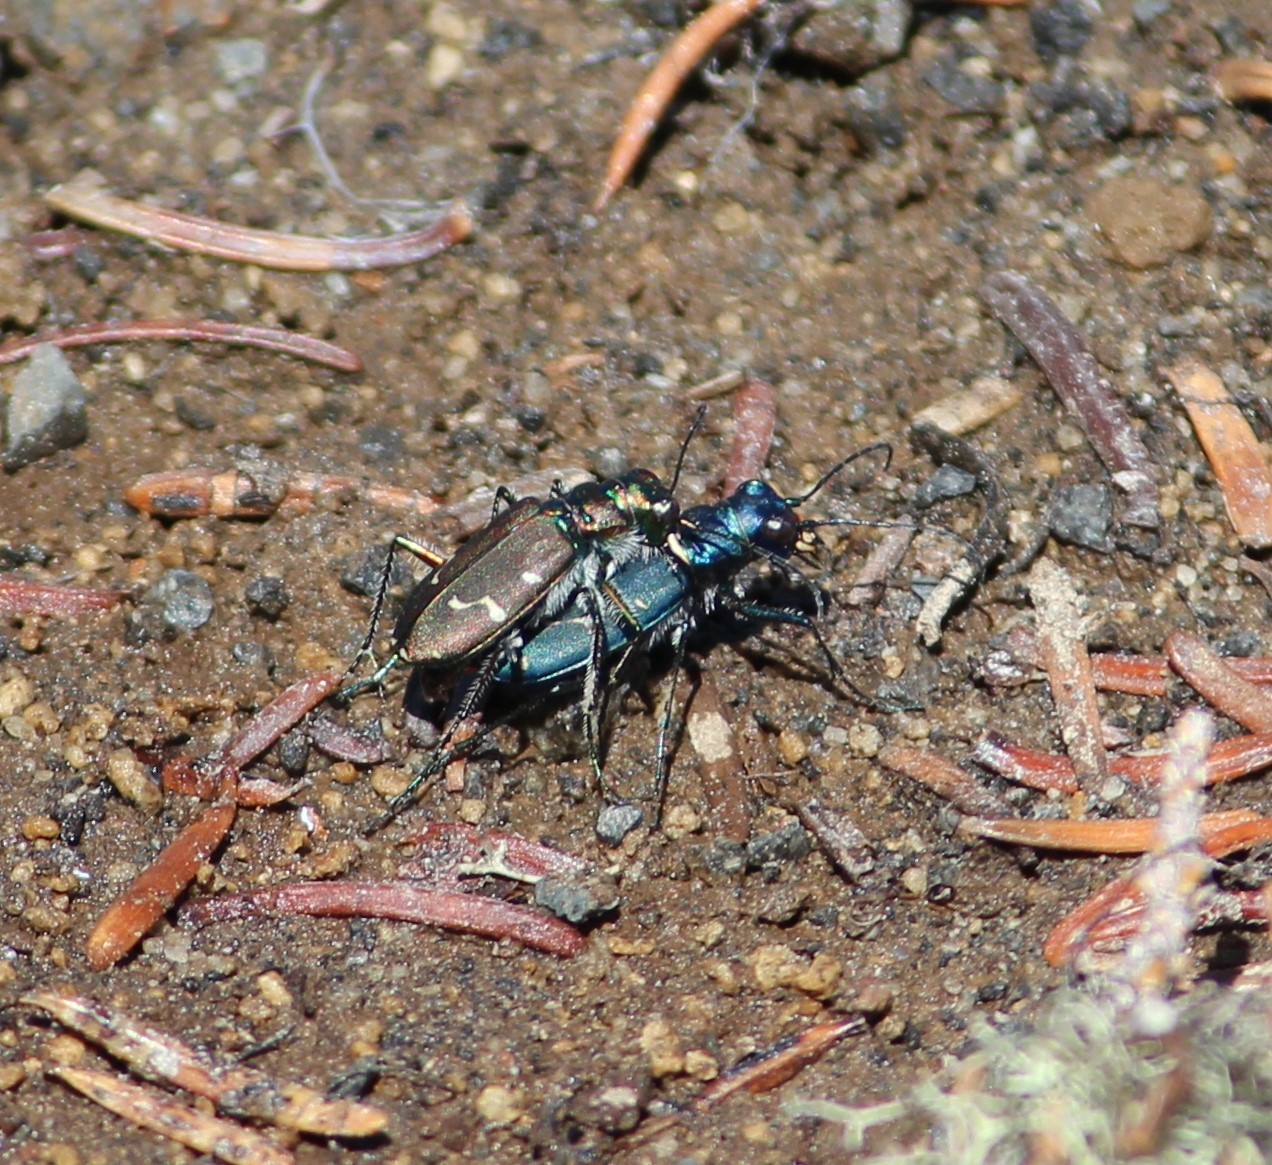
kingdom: Animalia
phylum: Arthropoda
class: Insecta
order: Coleoptera
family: Carabidae
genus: Cicindela
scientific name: Cicindela depressula
